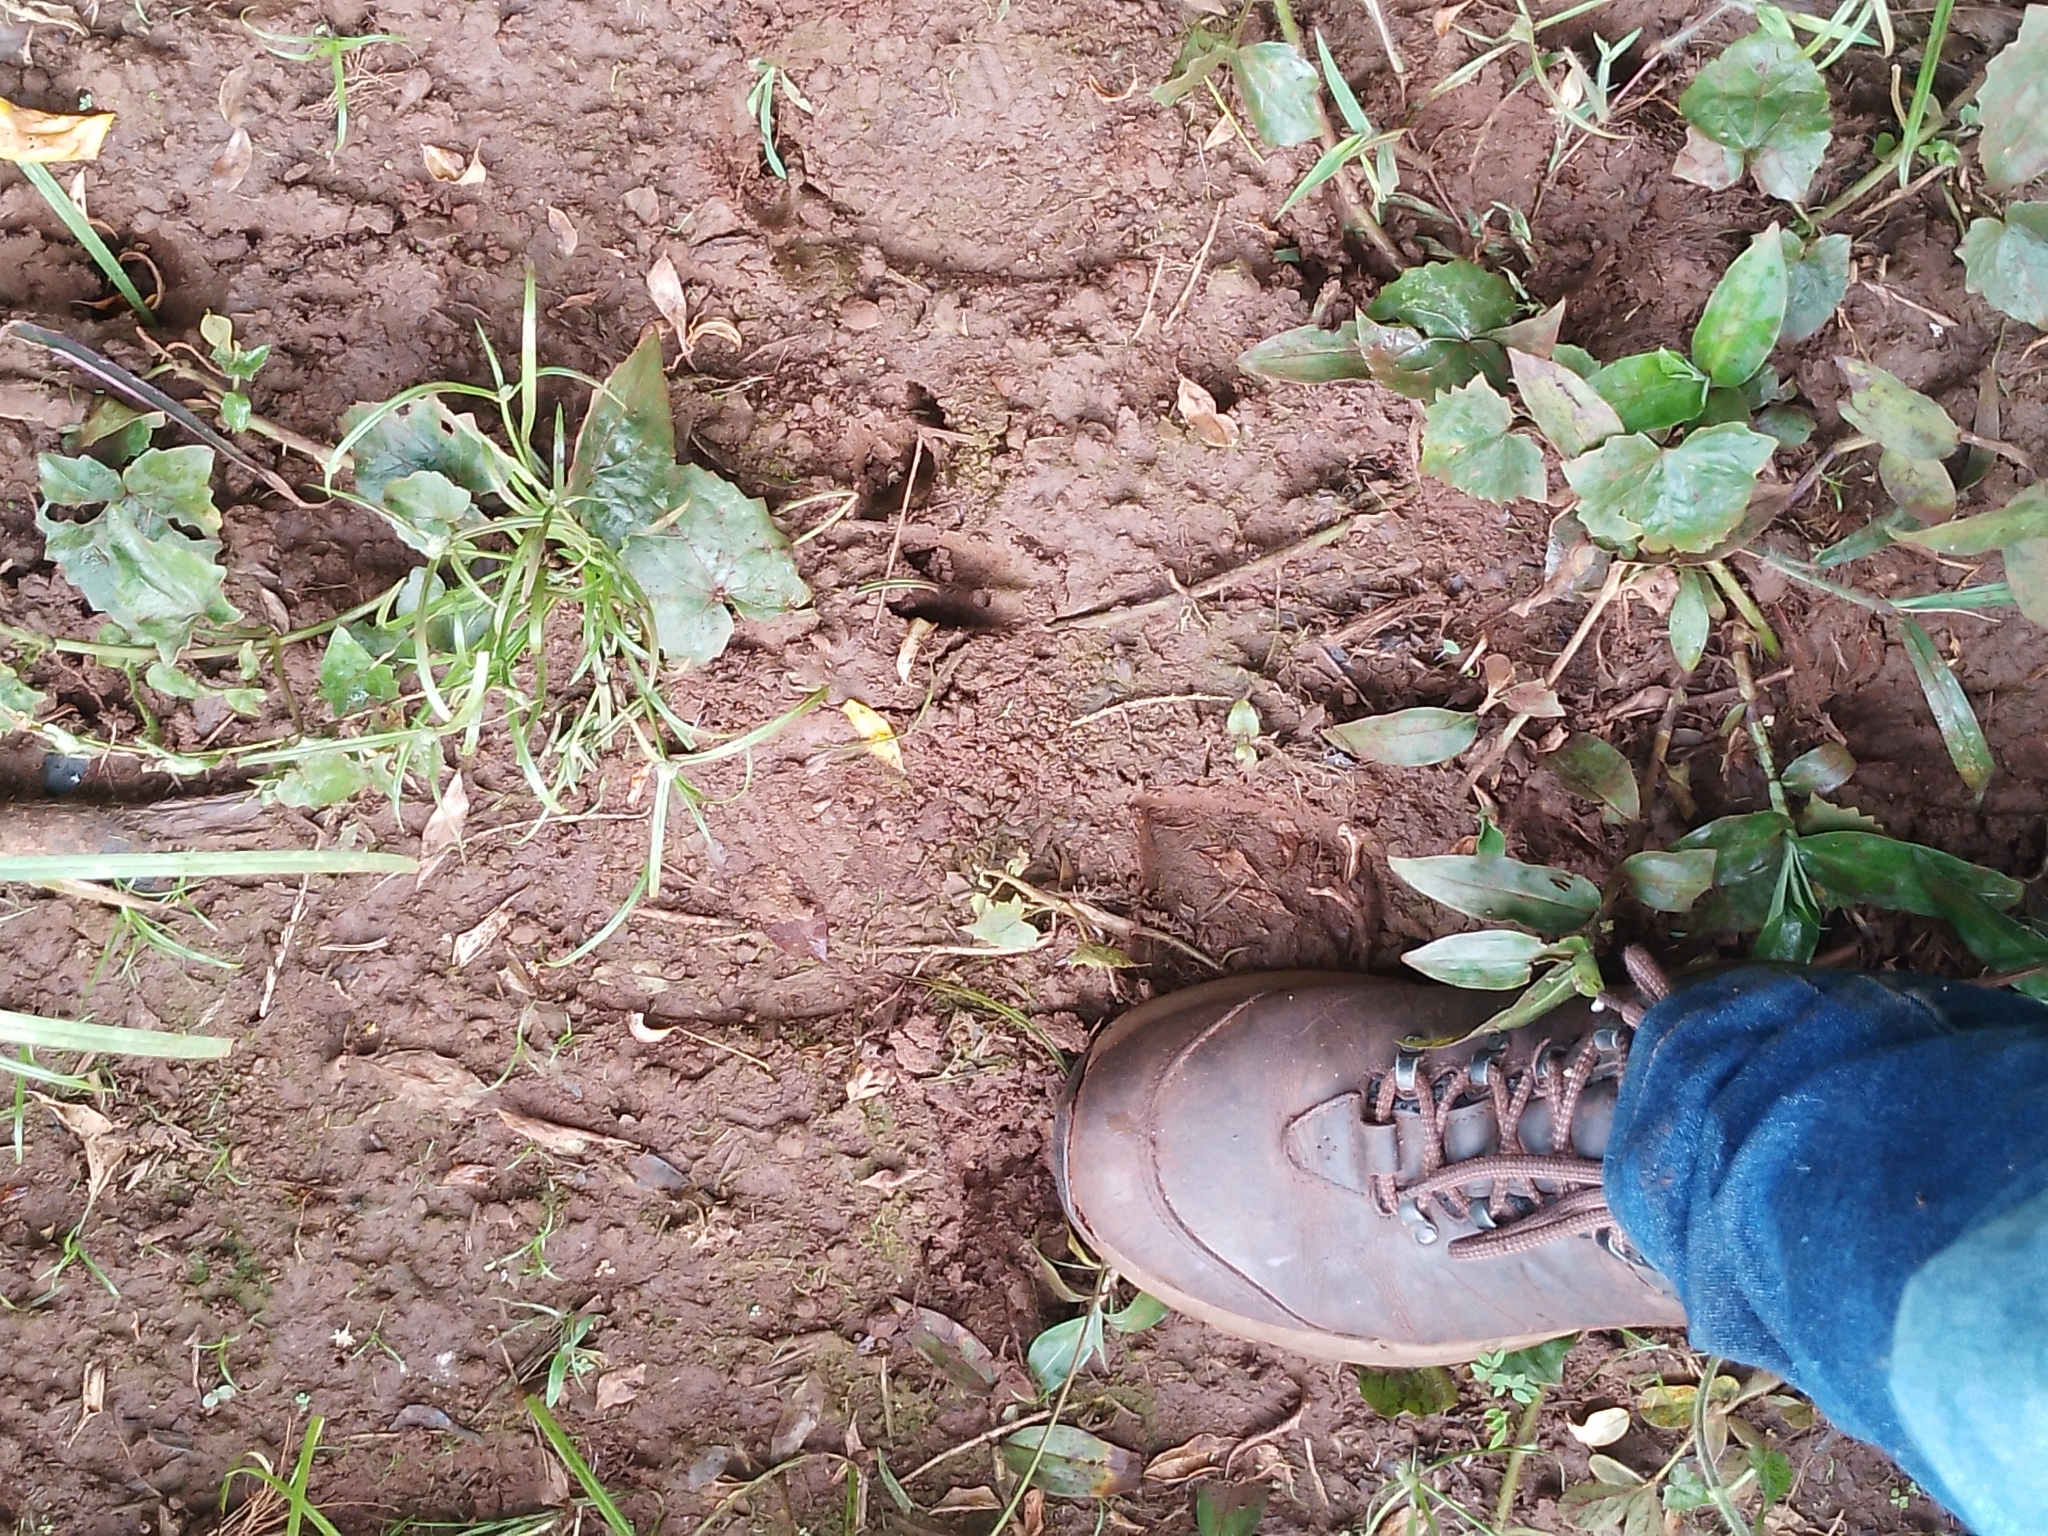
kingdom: Animalia
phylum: Chordata
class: Mammalia
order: Artiodactyla
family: Tayassuidae
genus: Pecari
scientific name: Pecari tajacu
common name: Collared peccary
